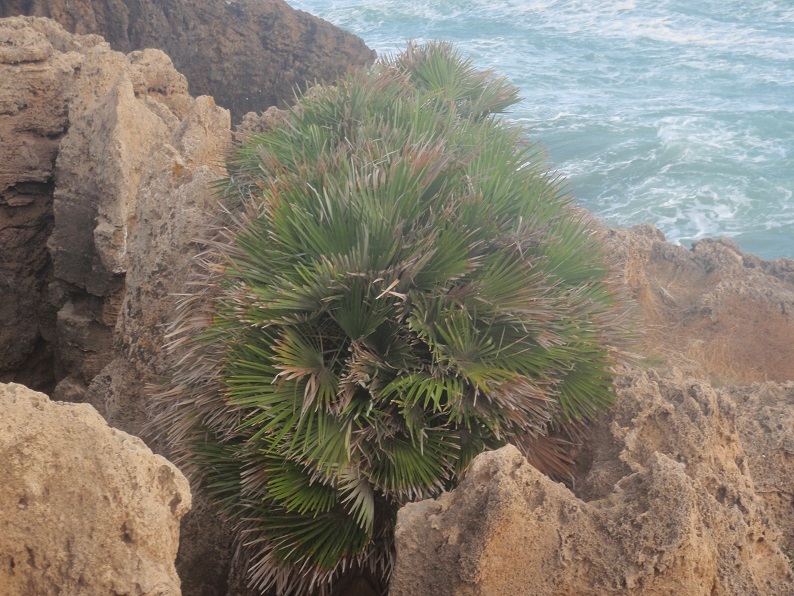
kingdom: Plantae
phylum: Tracheophyta
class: Liliopsida
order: Arecales
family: Arecaceae
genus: Chamaerops
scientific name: Chamaerops humilis
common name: Dwarf fan palm
